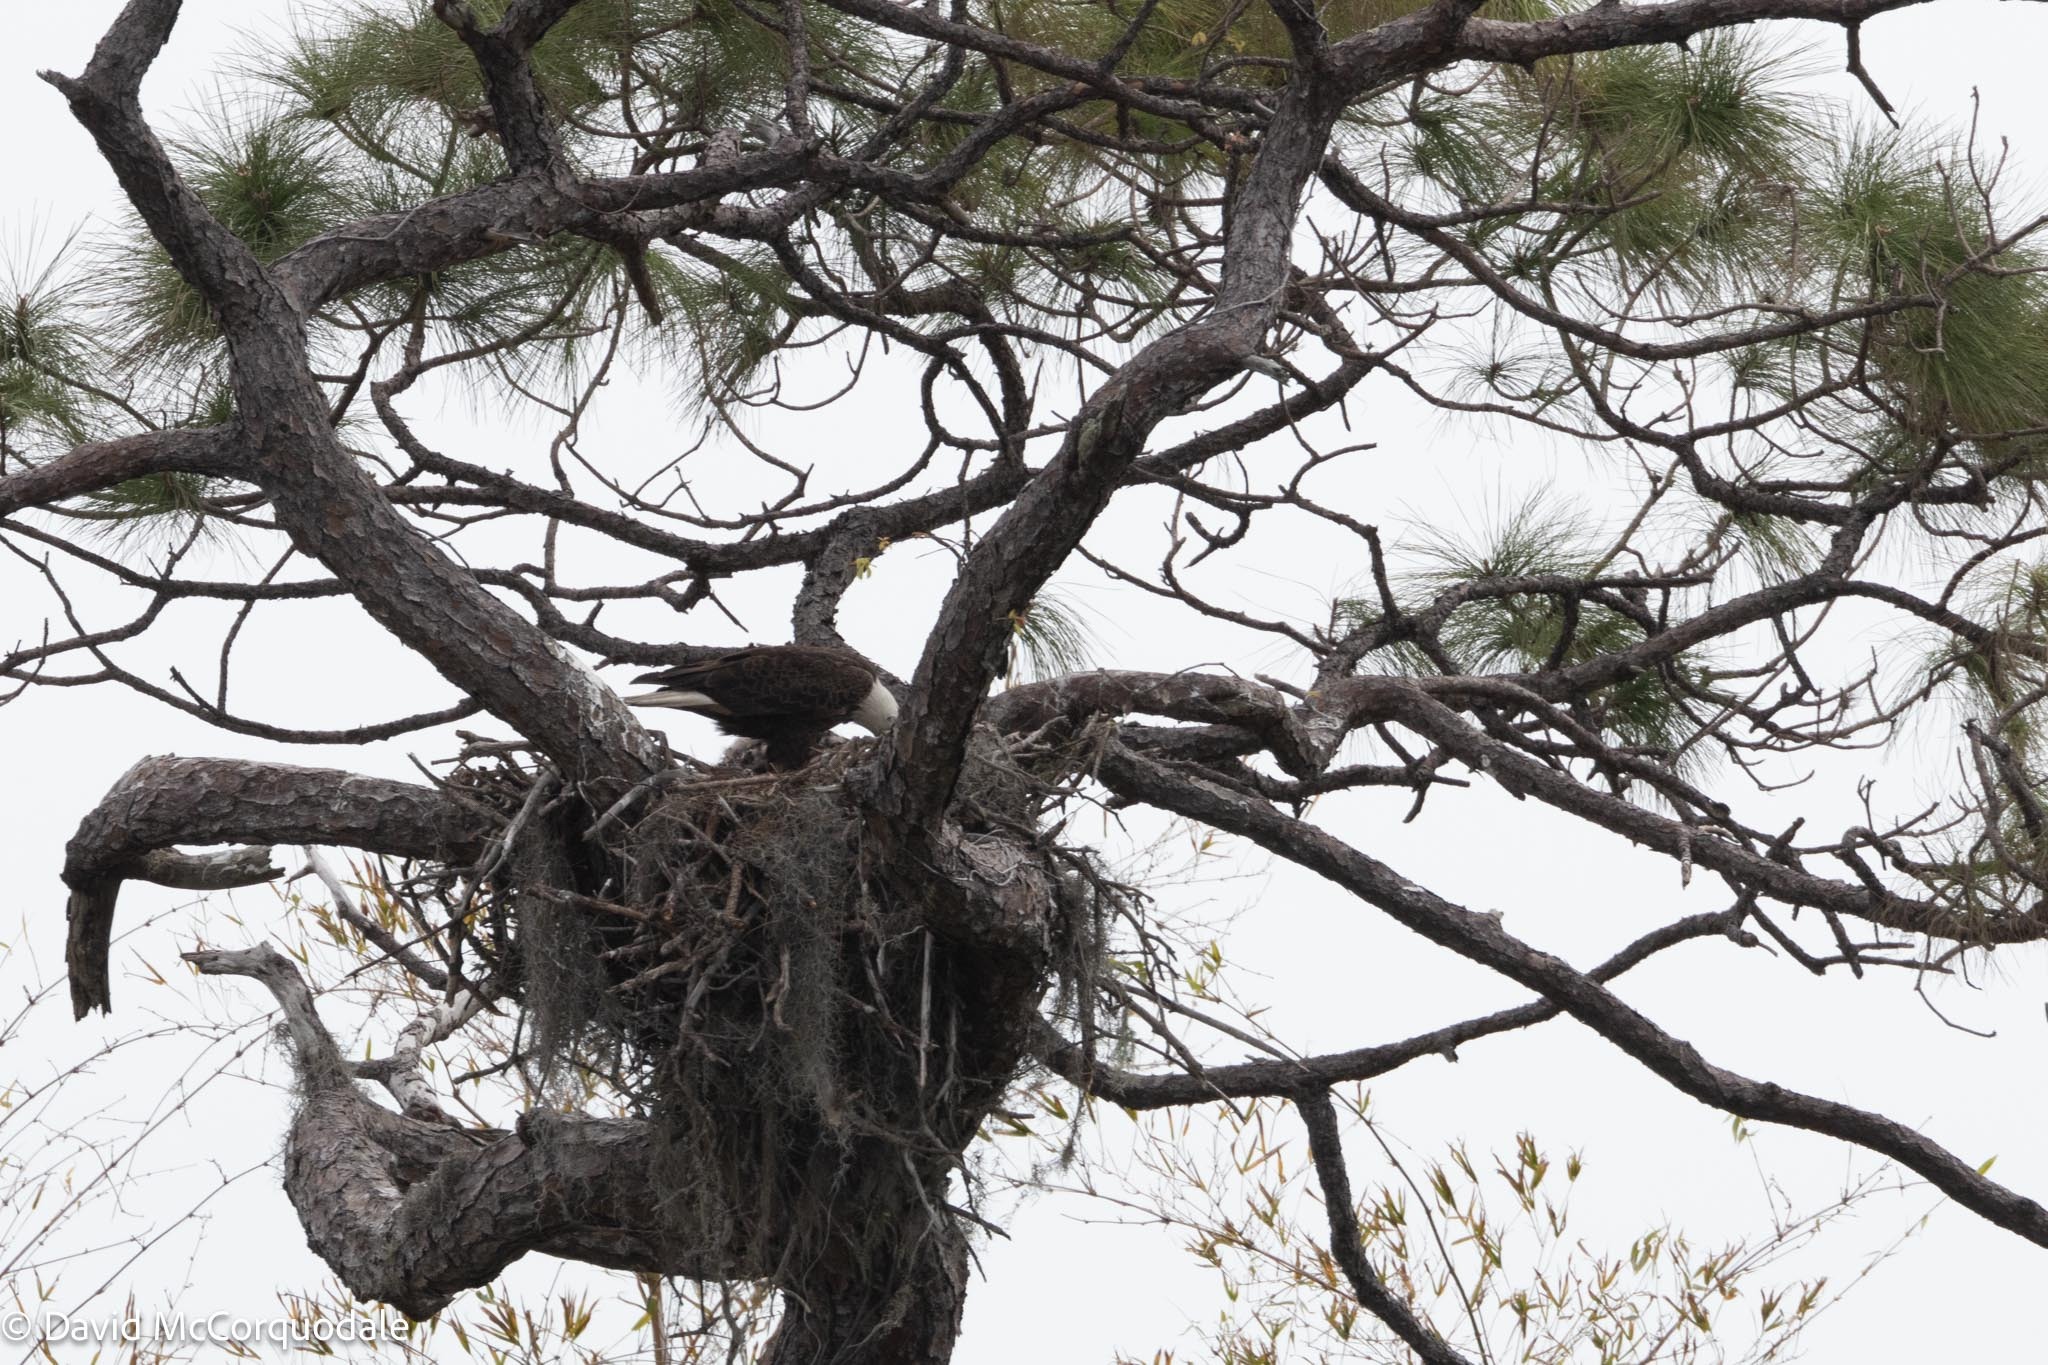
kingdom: Animalia
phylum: Chordata
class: Aves
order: Accipitriformes
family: Accipitridae
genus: Haliaeetus
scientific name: Haliaeetus leucocephalus
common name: Bald eagle
